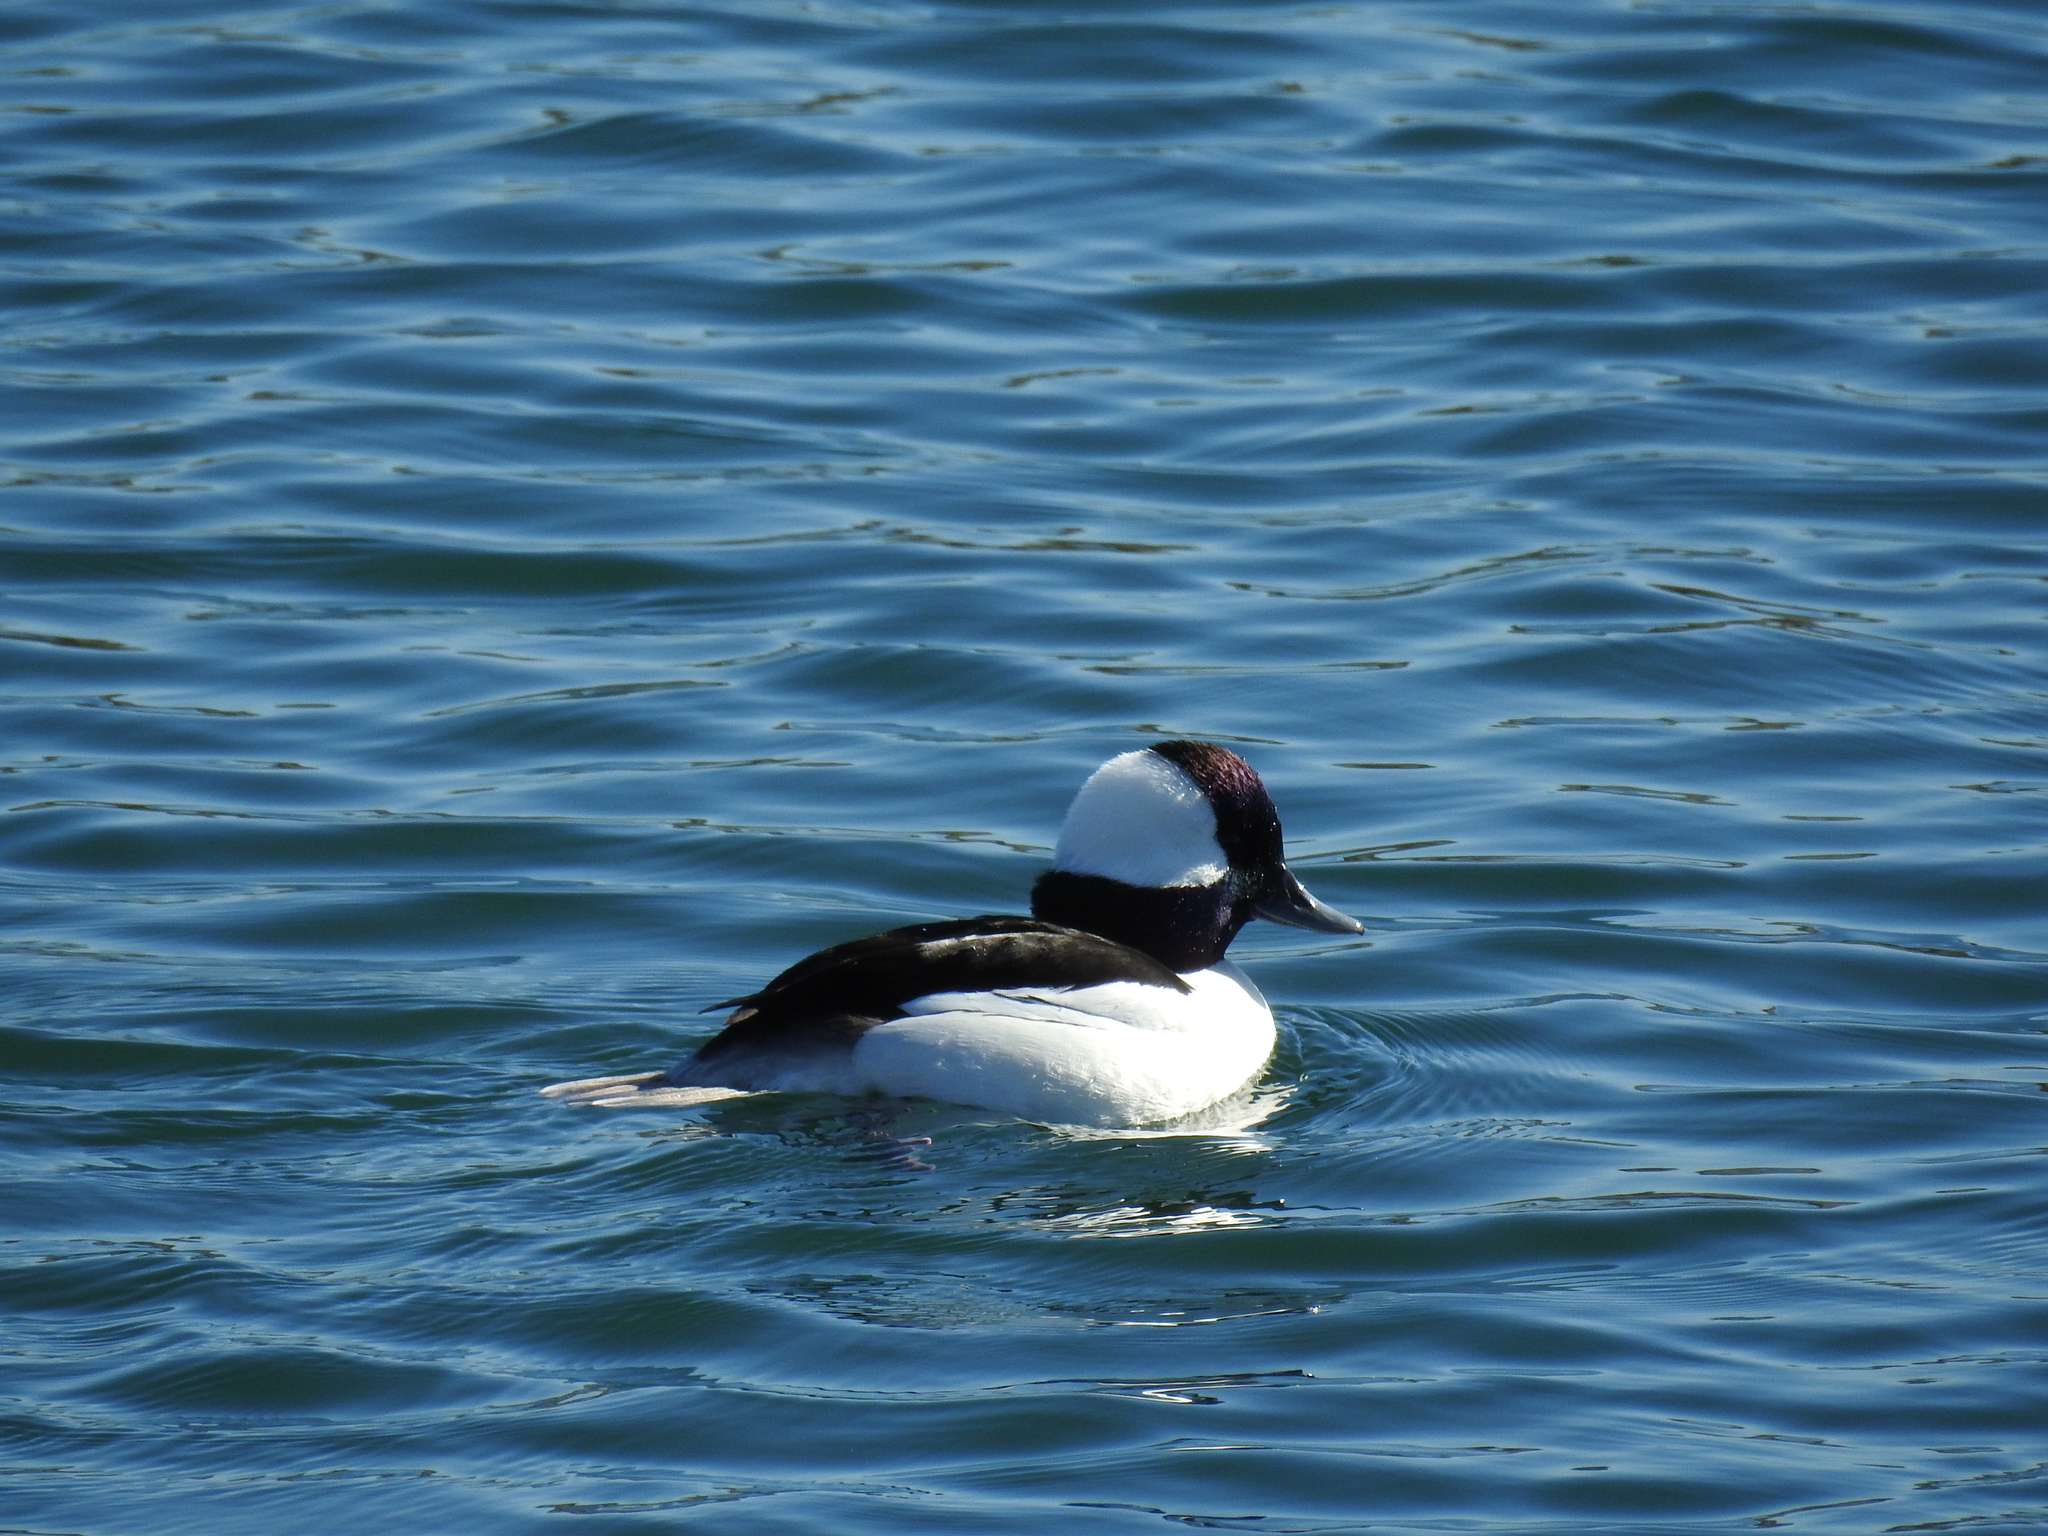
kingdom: Animalia
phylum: Chordata
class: Aves
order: Anseriformes
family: Anatidae
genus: Bucephala
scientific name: Bucephala albeola
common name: Bufflehead
